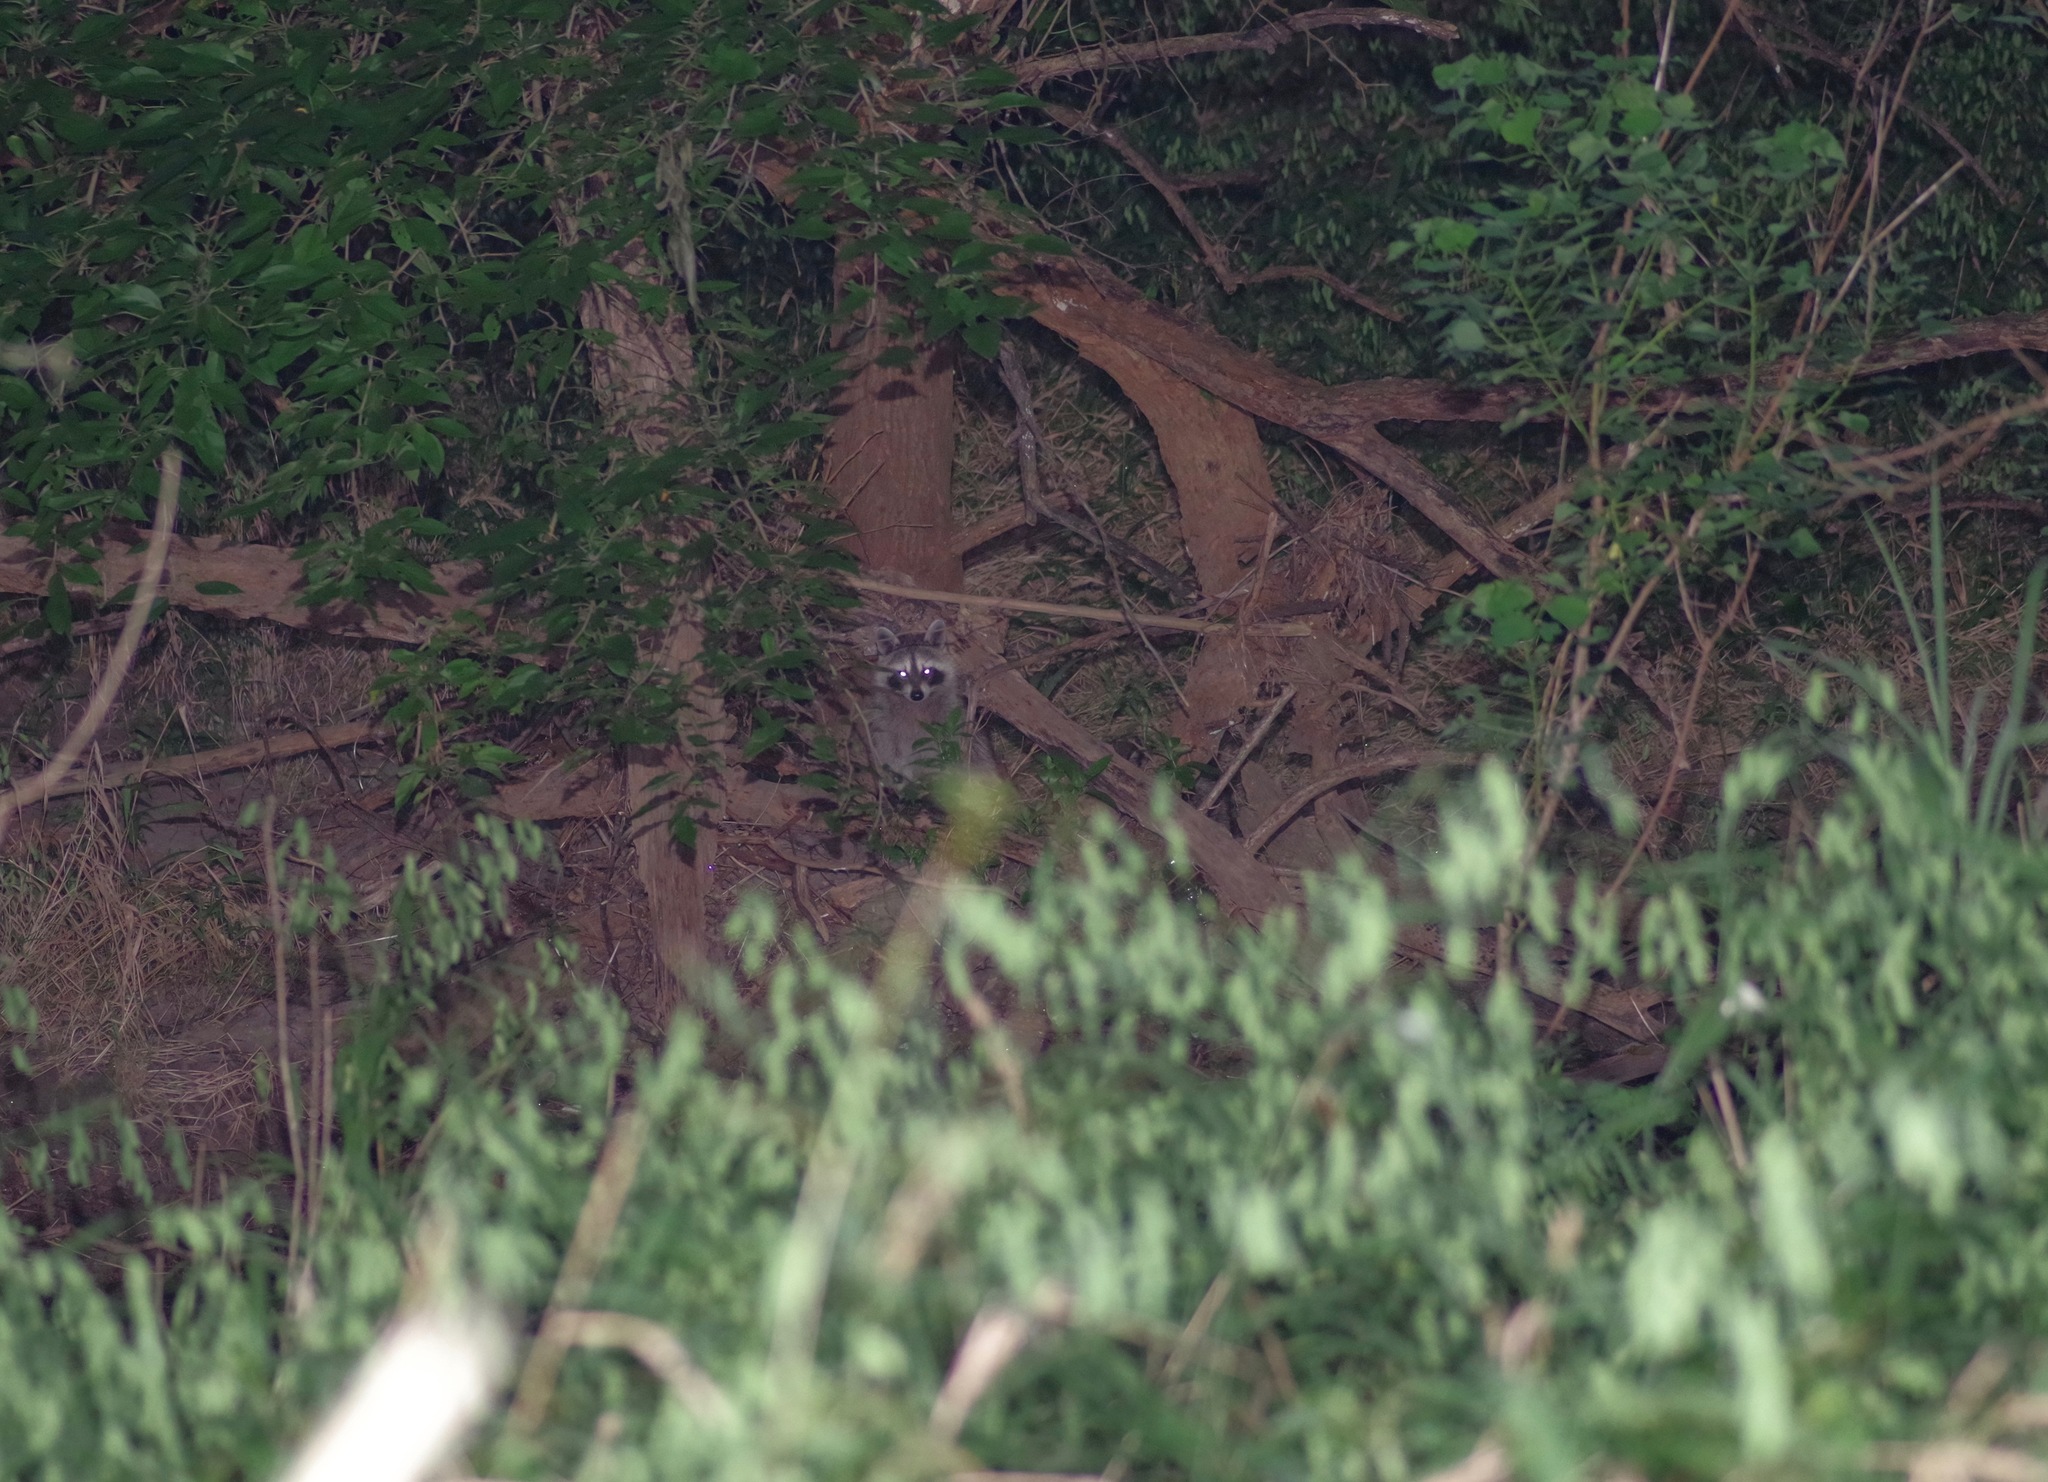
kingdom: Animalia
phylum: Chordata
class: Mammalia
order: Carnivora
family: Procyonidae
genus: Procyon
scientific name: Procyon lotor
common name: Raccoon
